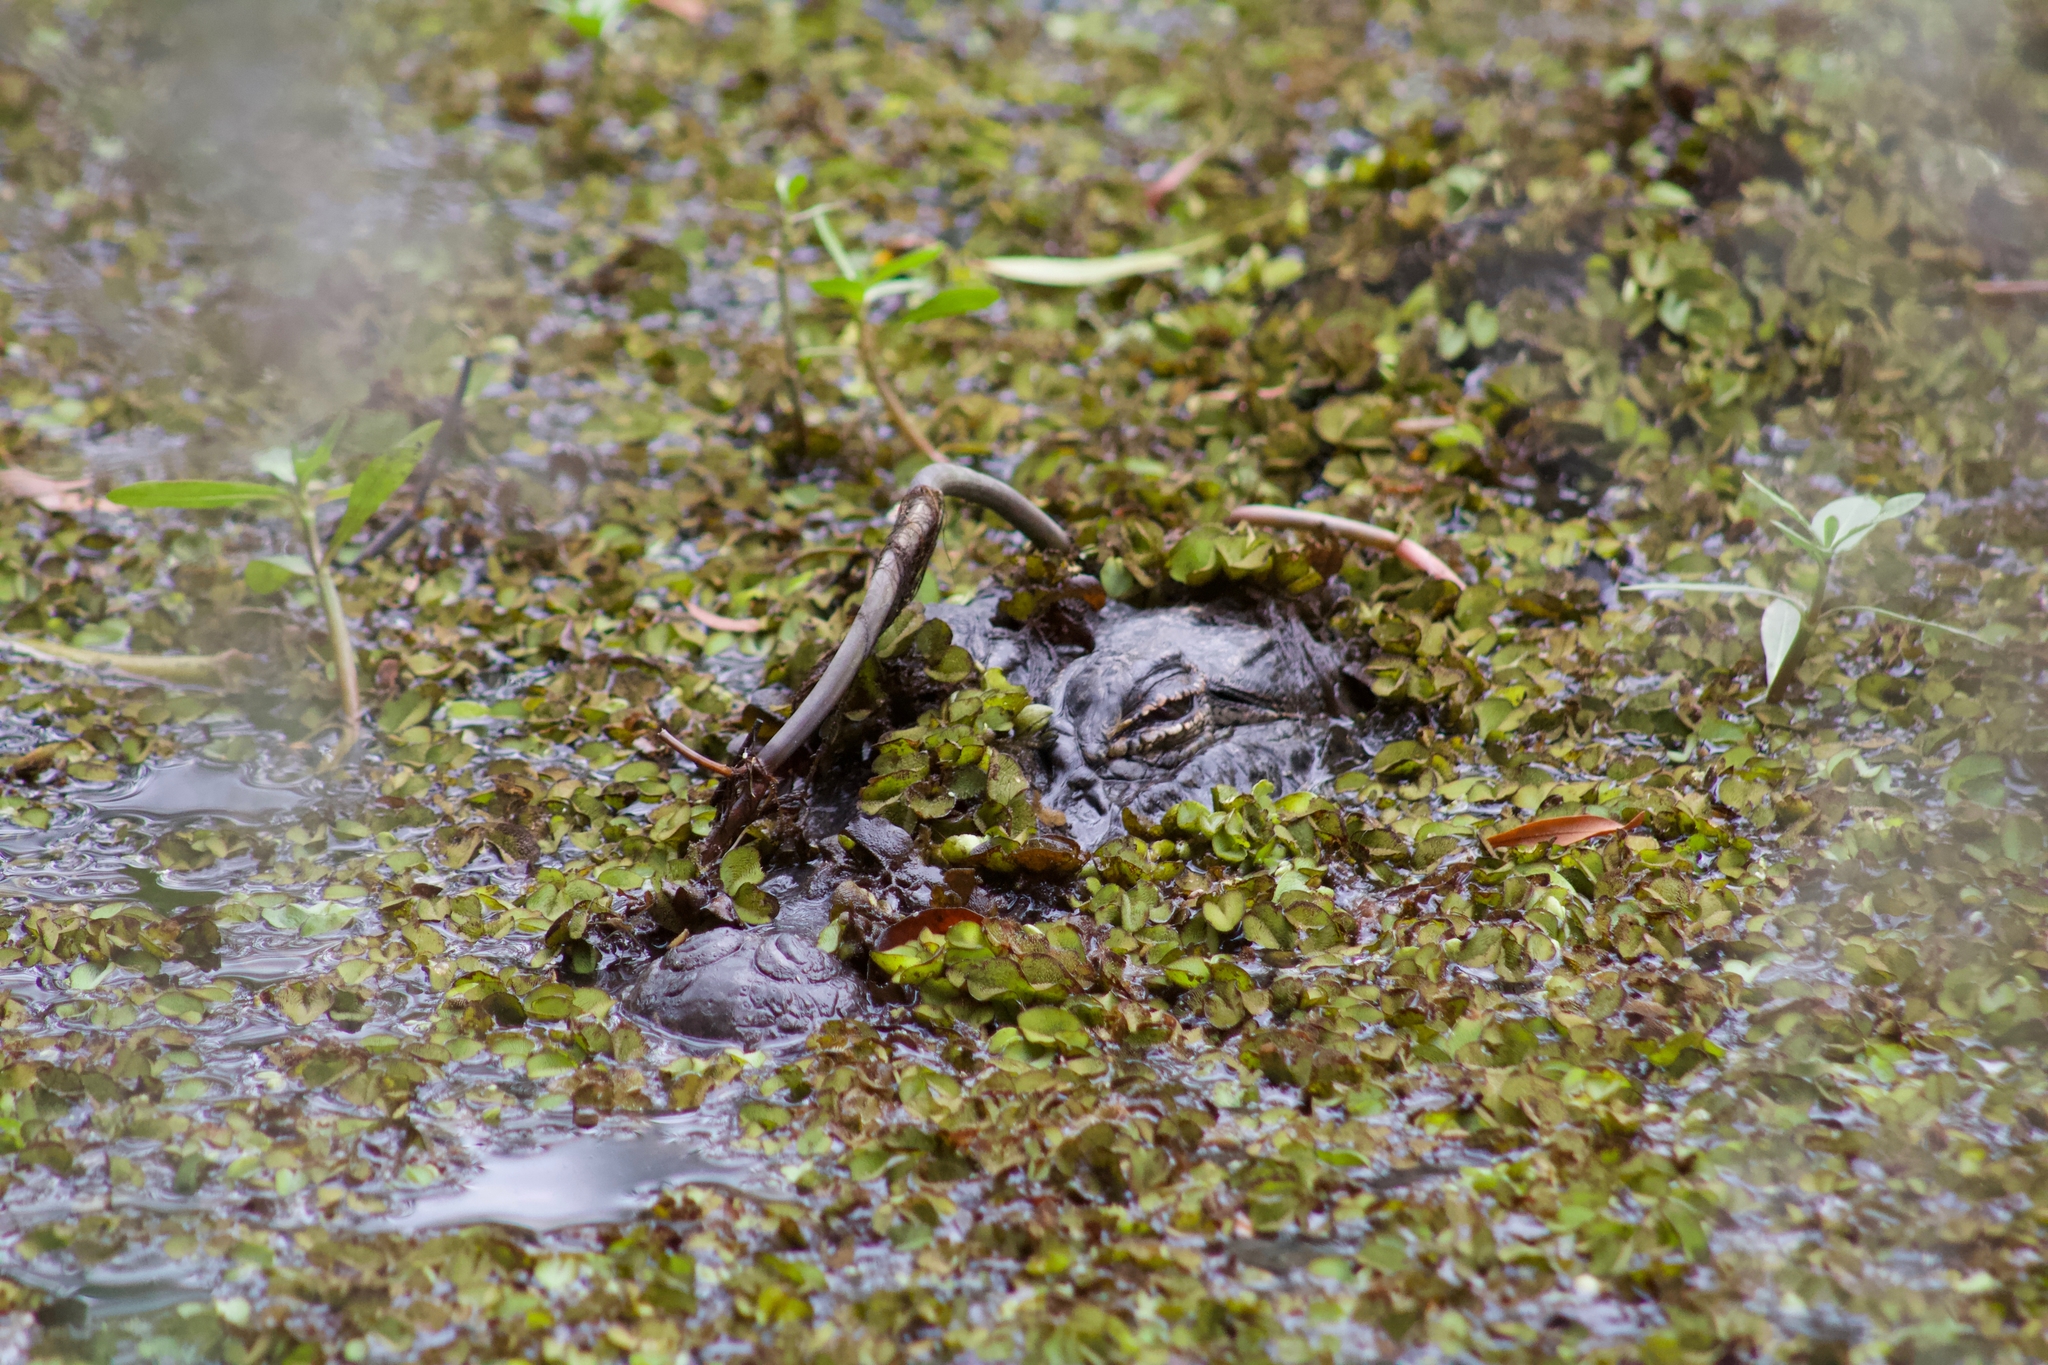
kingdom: Animalia
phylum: Chordata
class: Crocodylia
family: Alligatoridae
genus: Alligator
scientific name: Alligator mississippiensis
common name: American alligator
